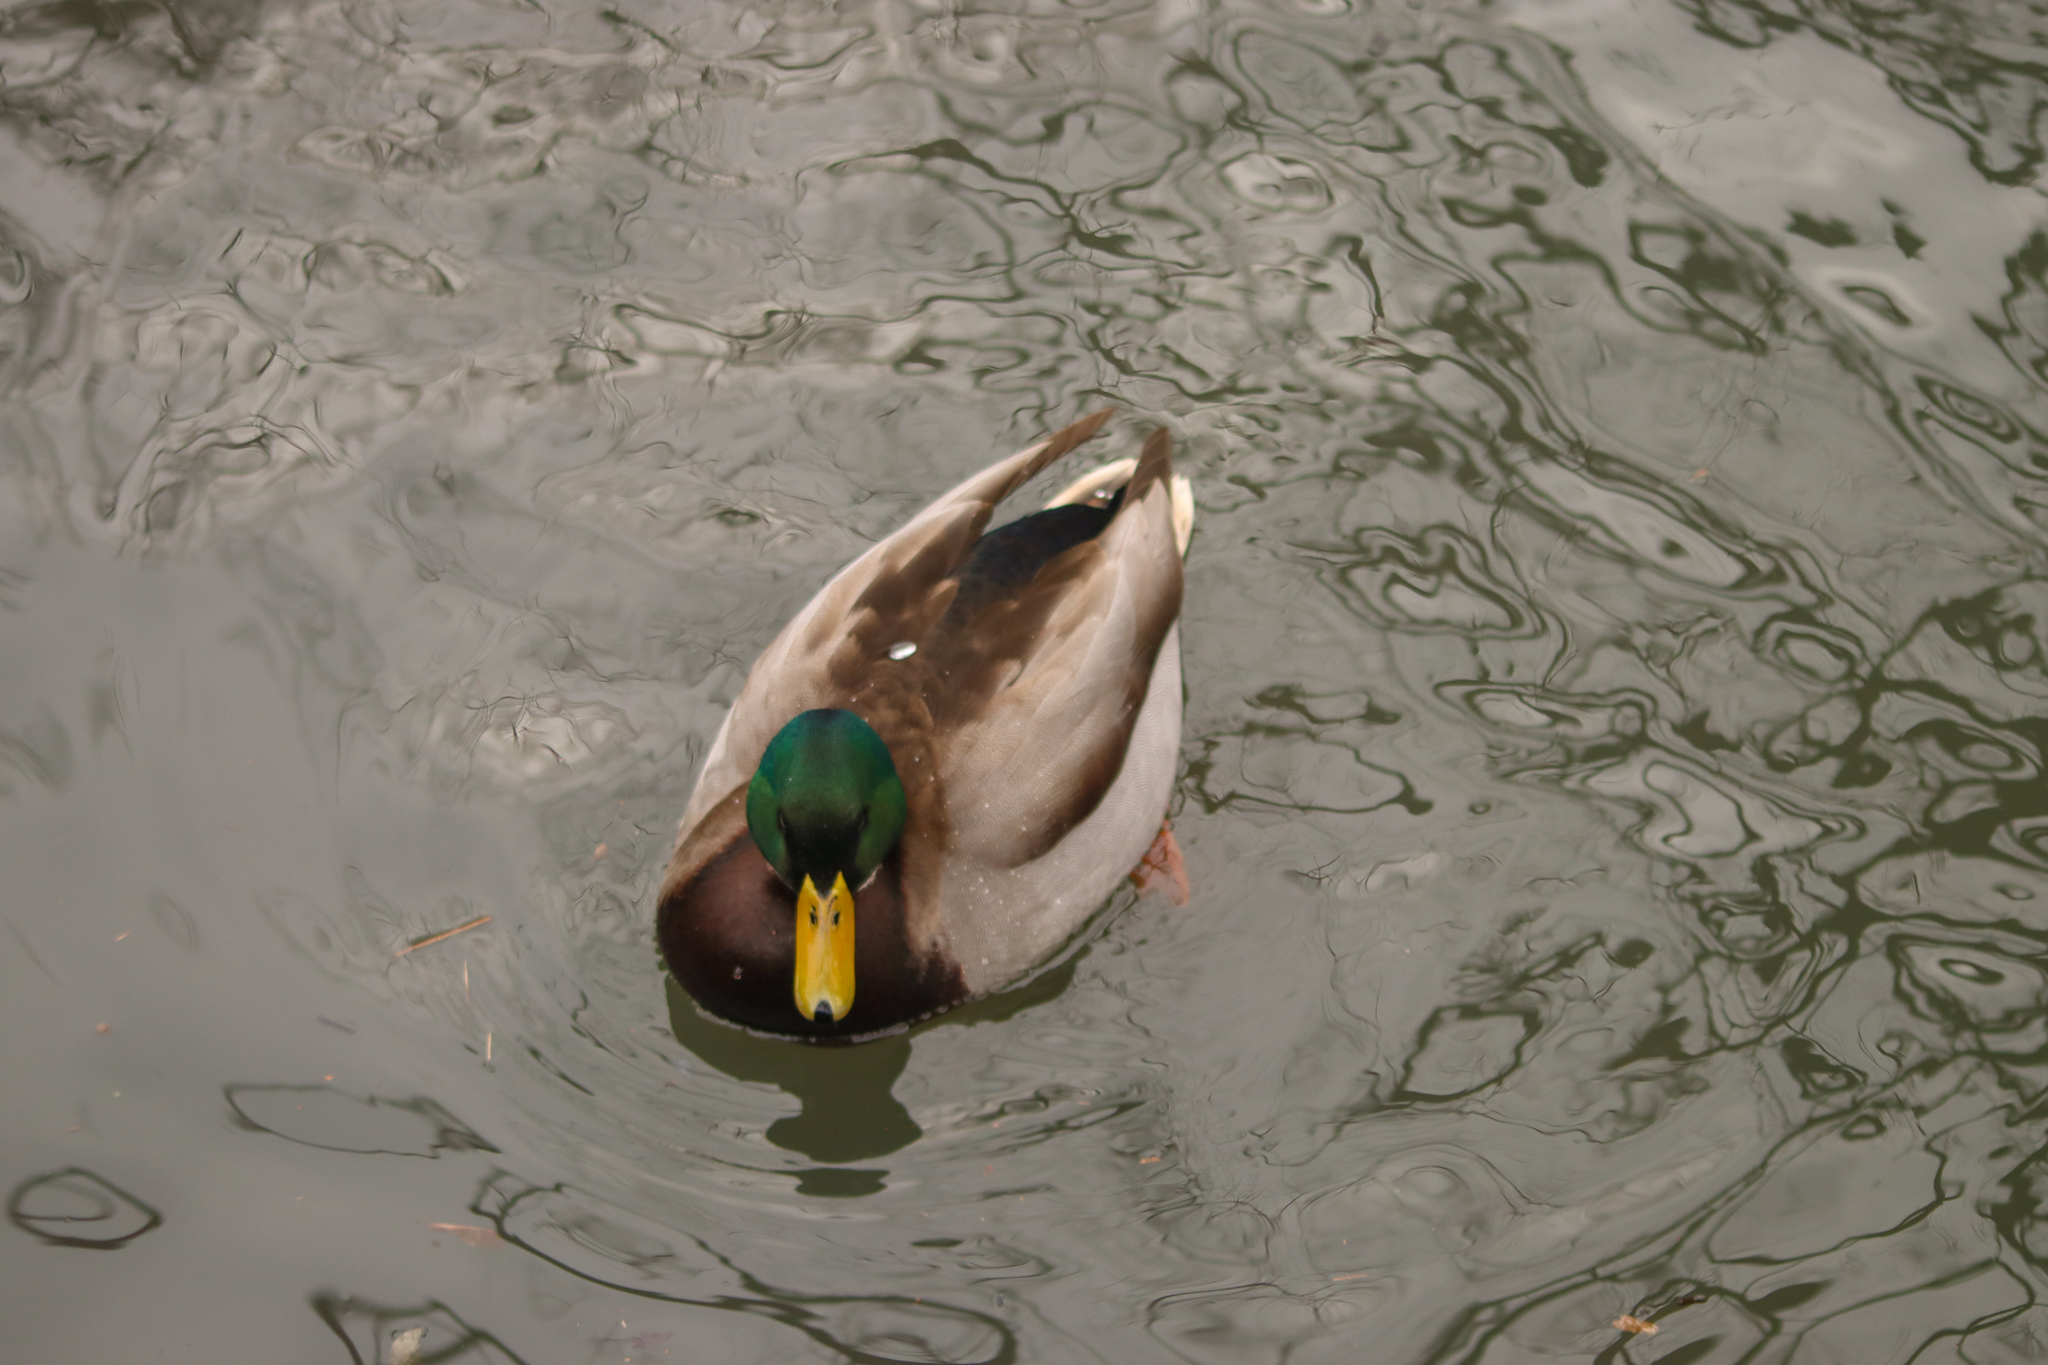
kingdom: Animalia
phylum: Chordata
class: Aves
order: Anseriformes
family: Anatidae
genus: Anas
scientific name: Anas platyrhynchos
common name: Mallard
